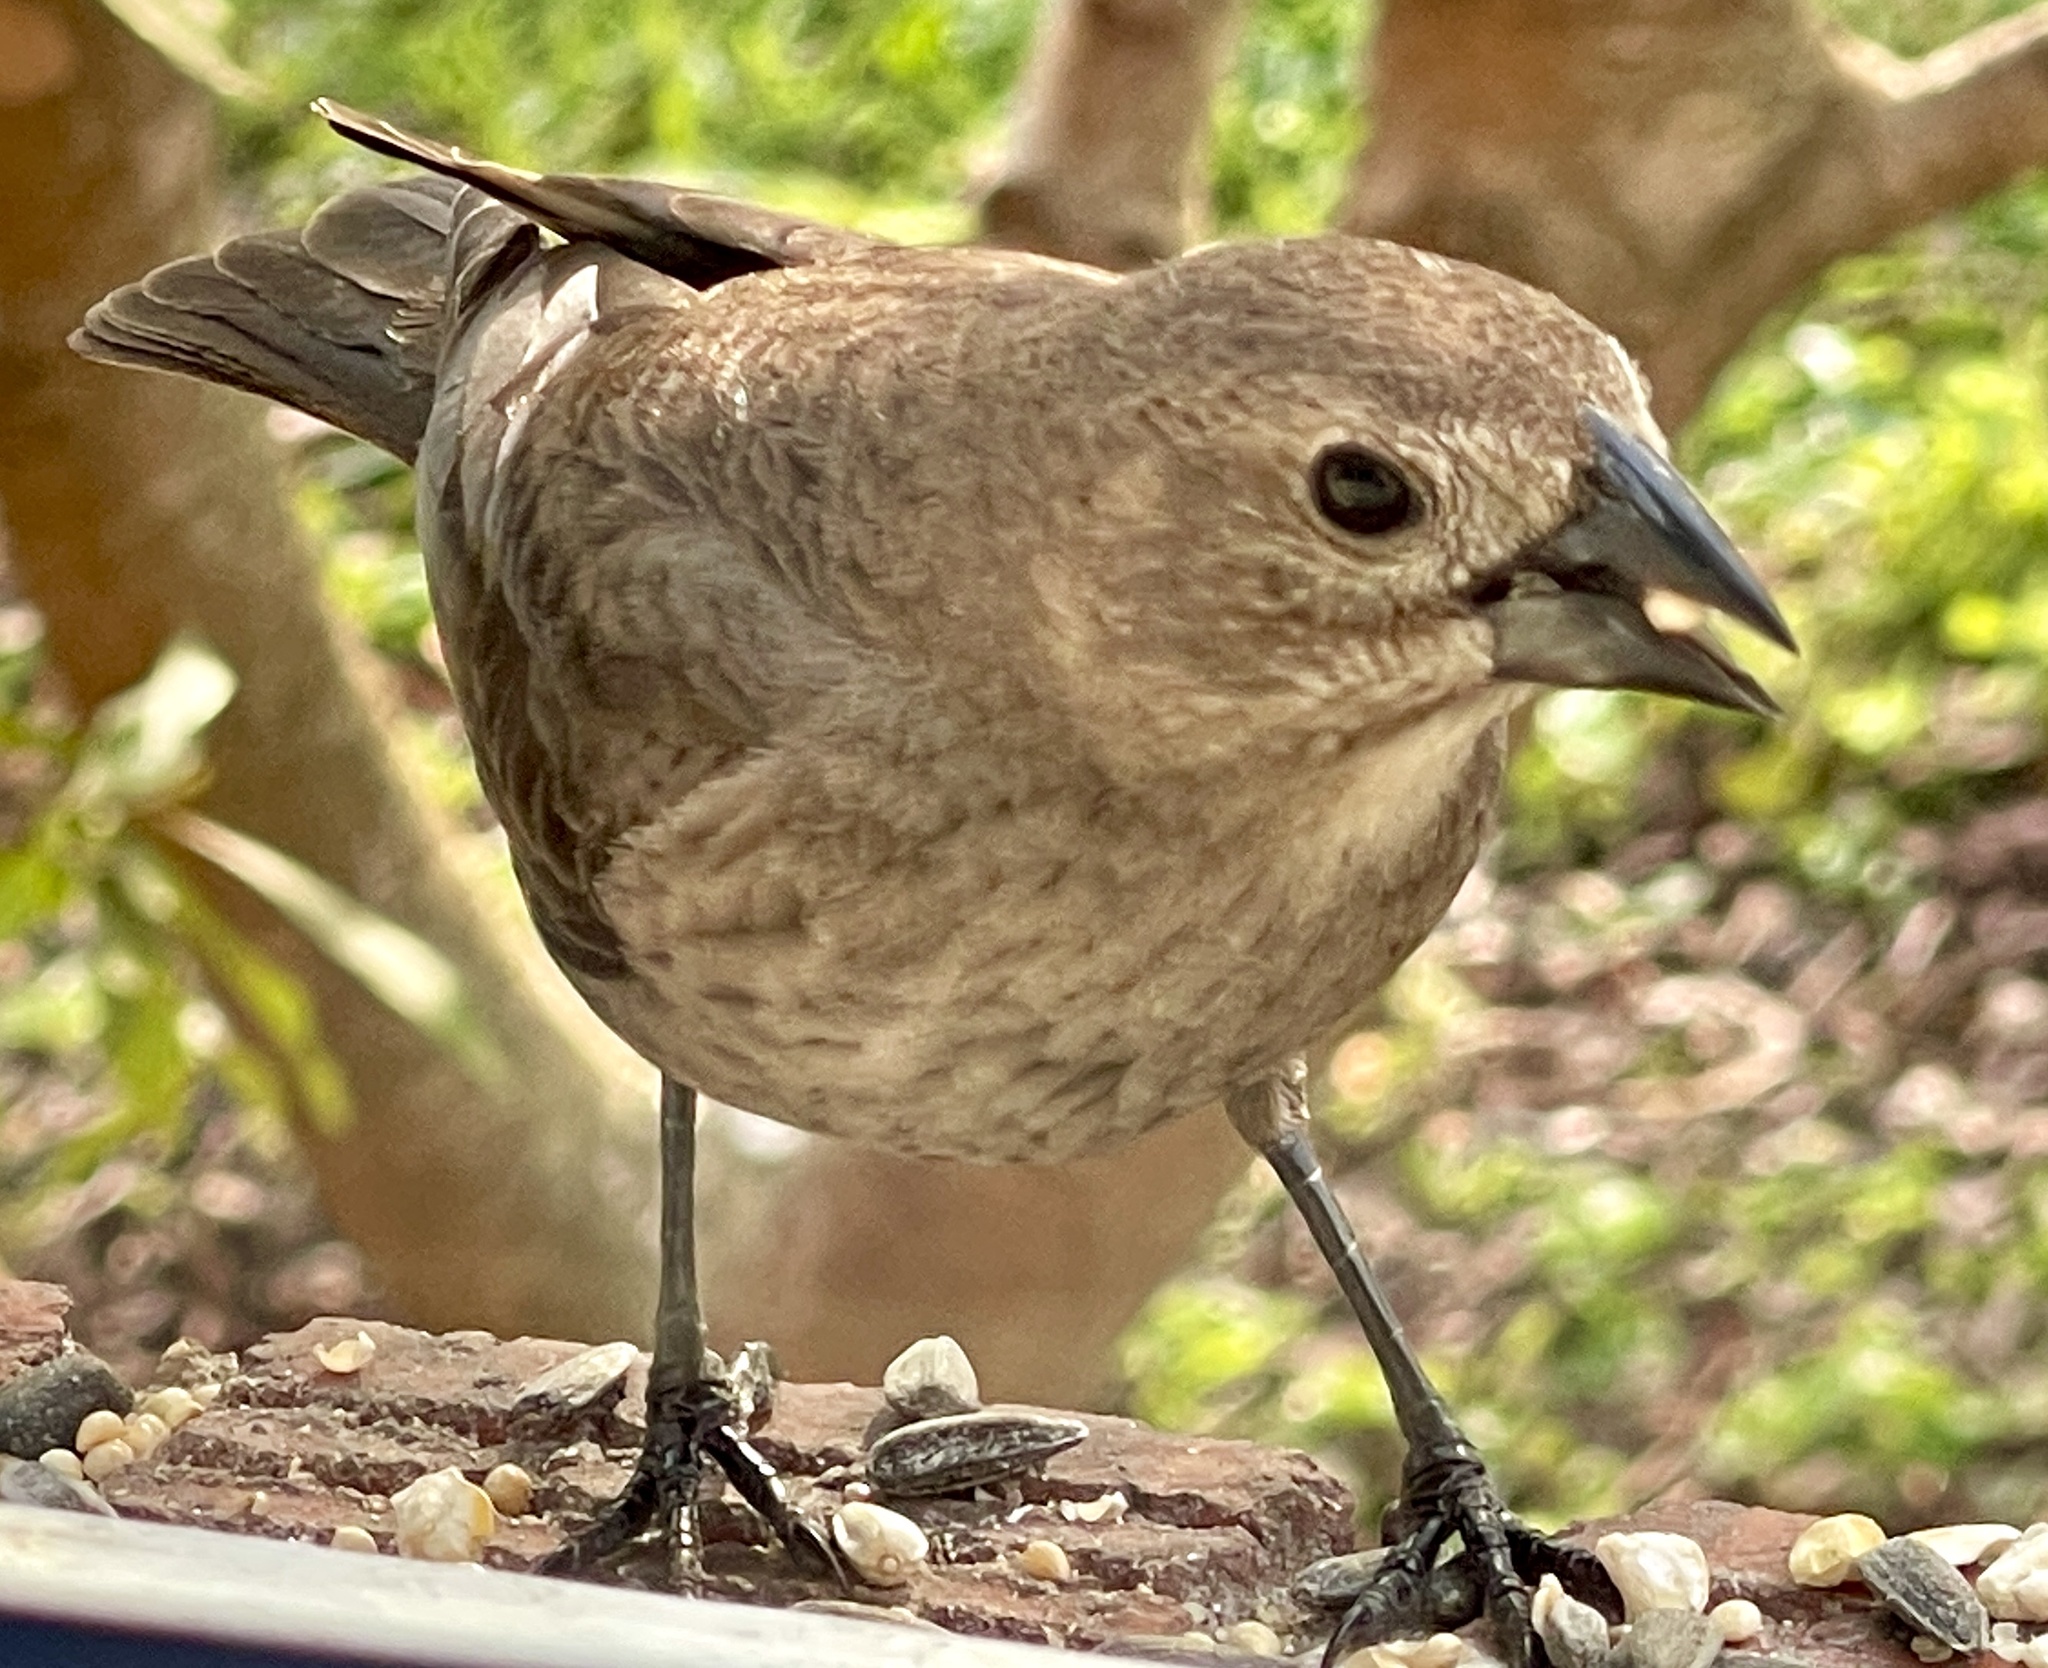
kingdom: Animalia
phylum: Chordata
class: Aves
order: Passeriformes
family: Icteridae
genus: Molothrus
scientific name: Molothrus ater
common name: Brown-headed cowbird
